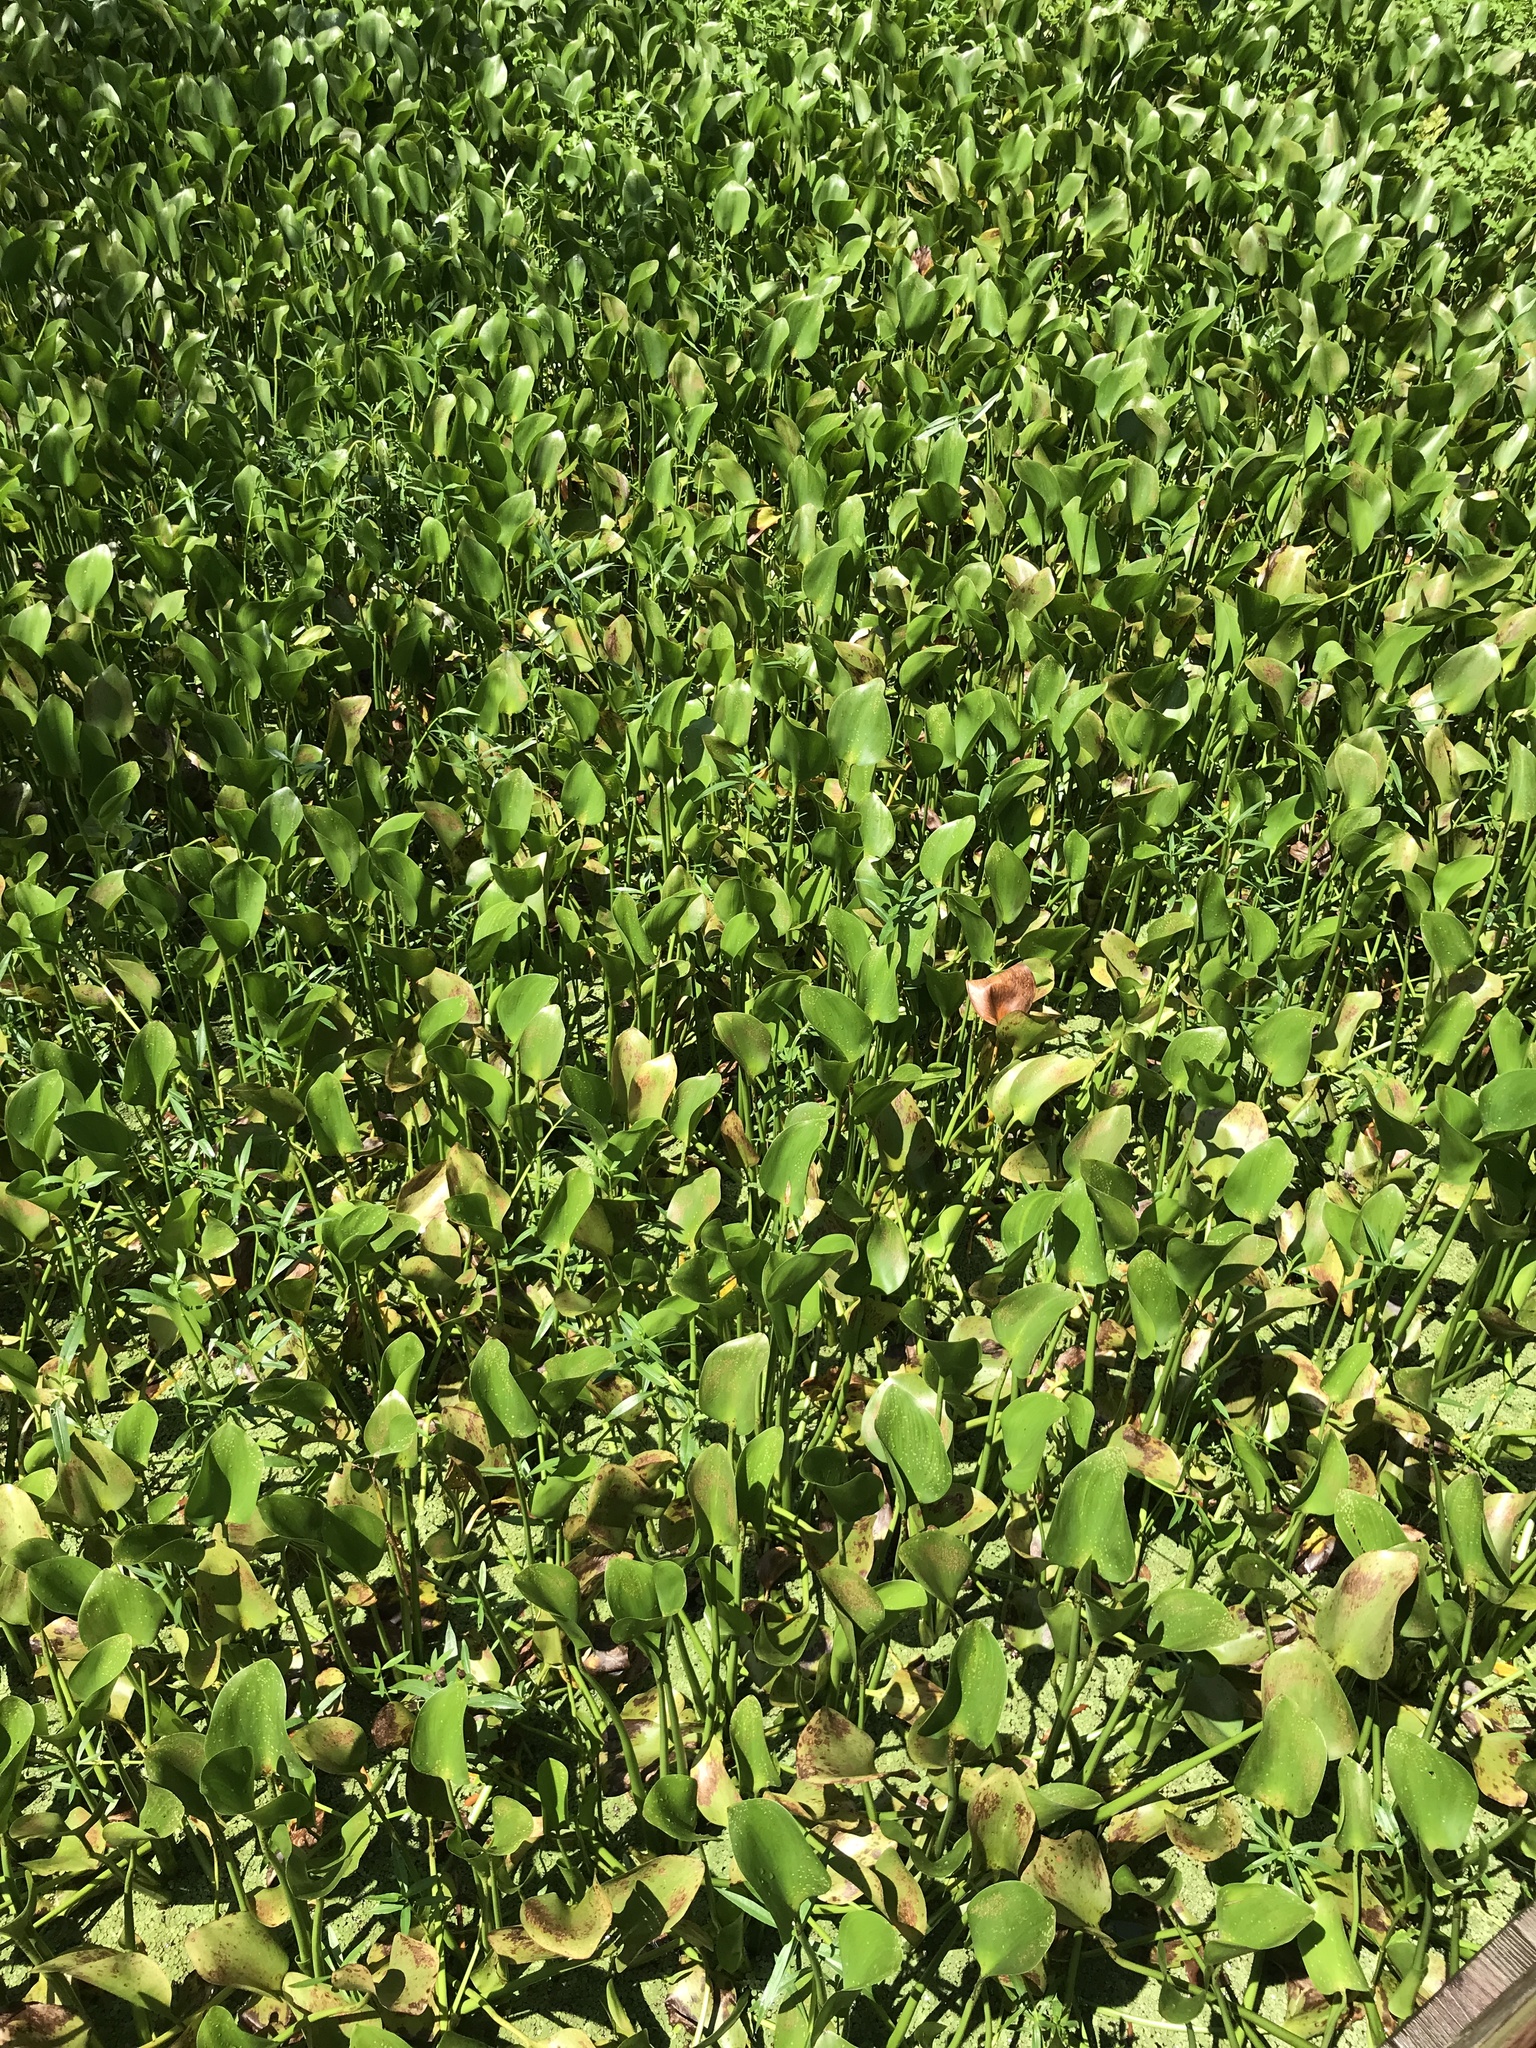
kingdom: Plantae
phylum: Tracheophyta
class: Liliopsida
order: Commelinales
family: Pontederiaceae
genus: Pontederia
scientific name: Pontederia crassipes
